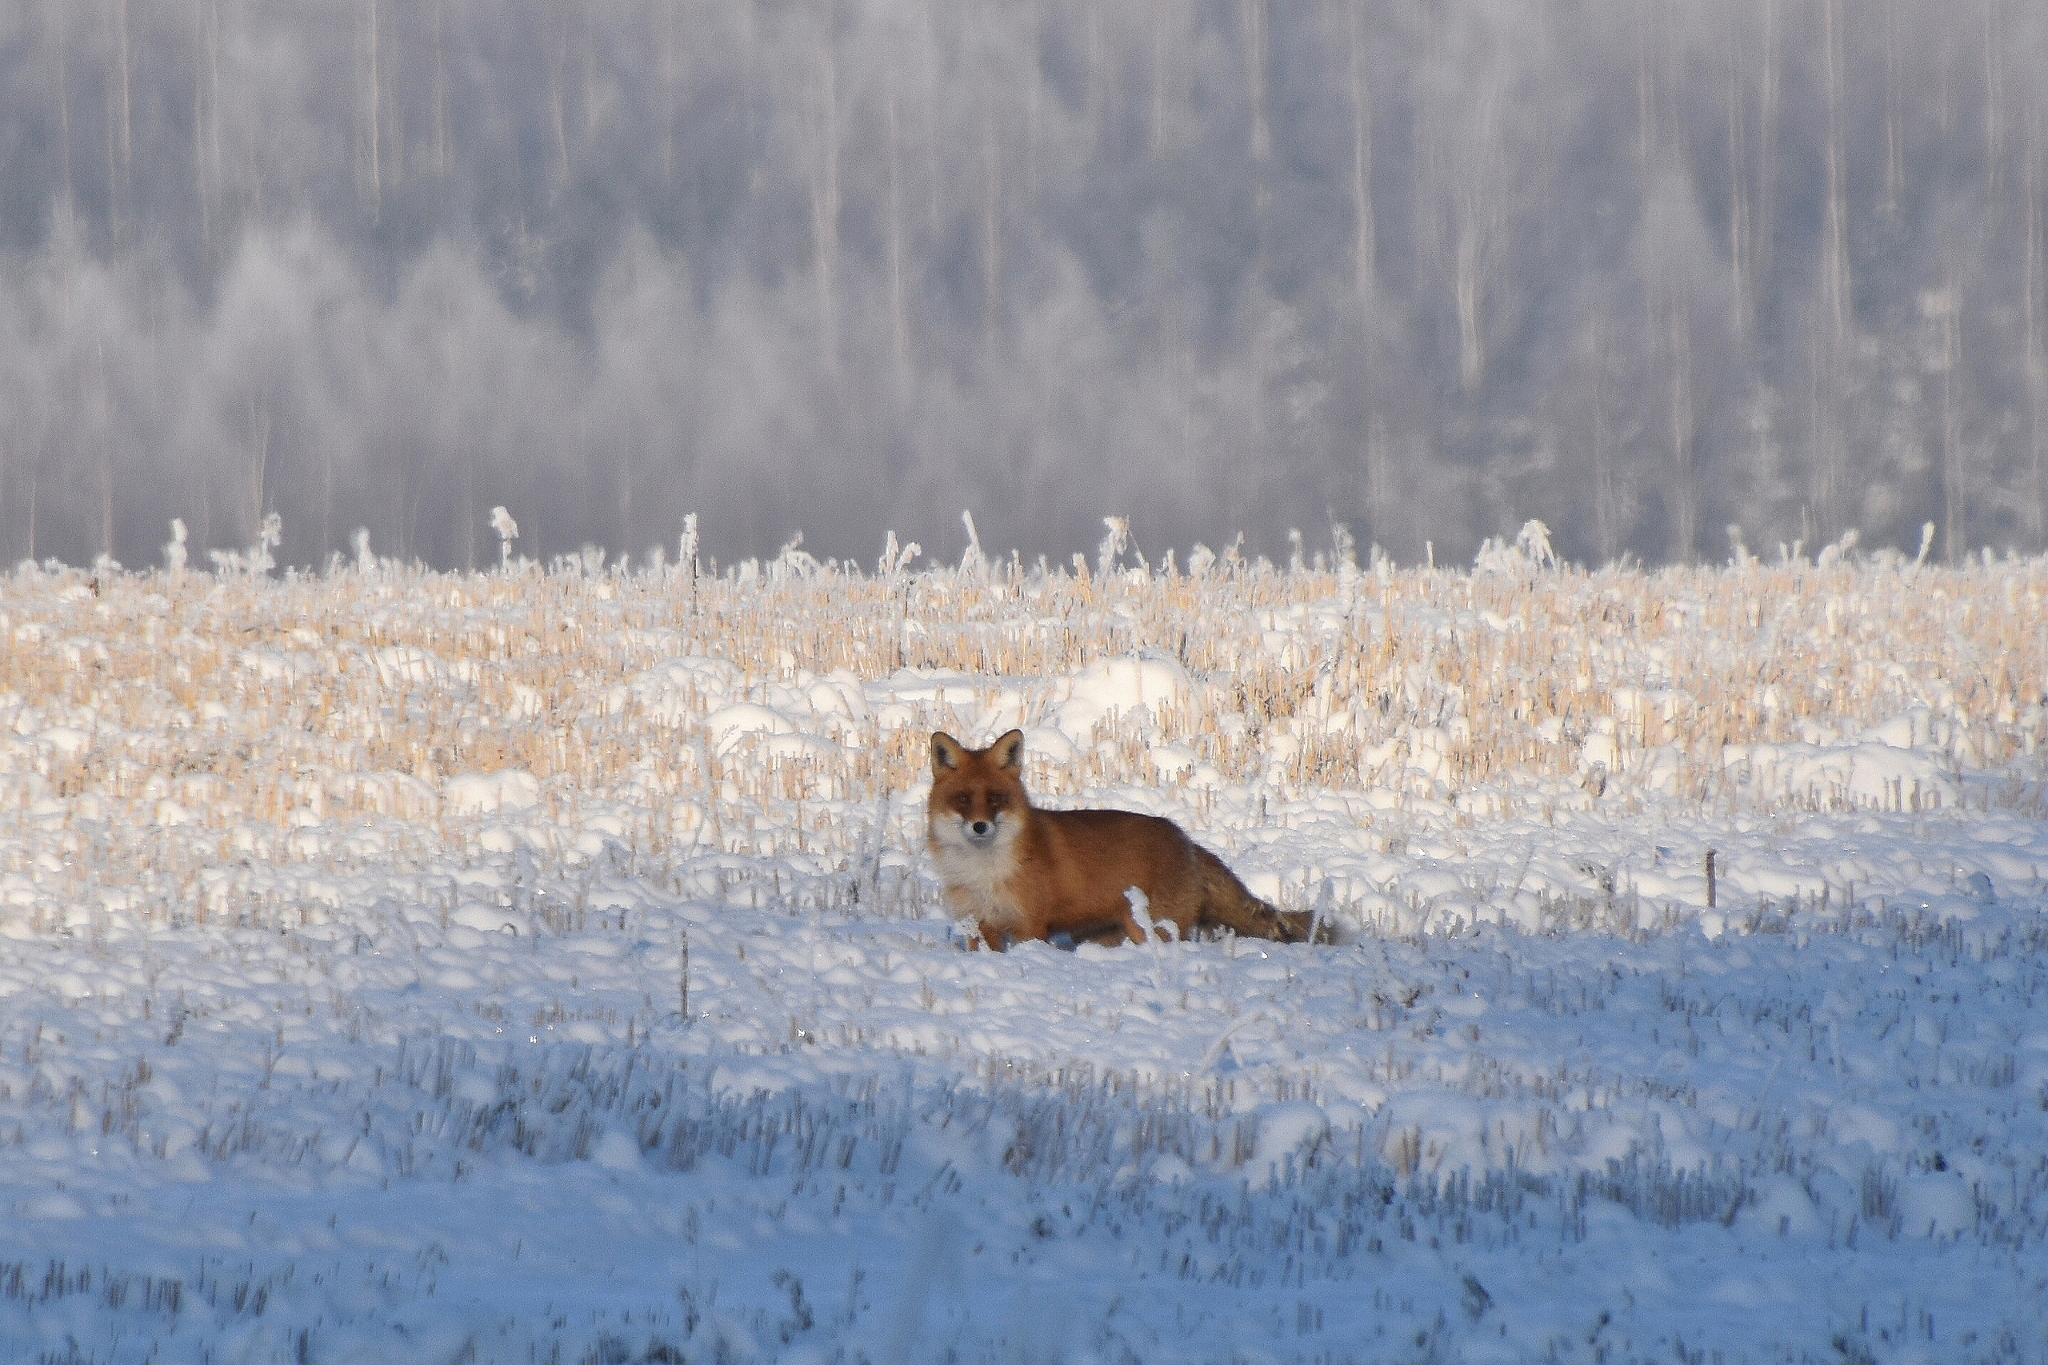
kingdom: Animalia
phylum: Chordata
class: Mammalia
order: Carnivora
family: Canidae
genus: Vulpes
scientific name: Vulpes vulpes
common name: Red fox
